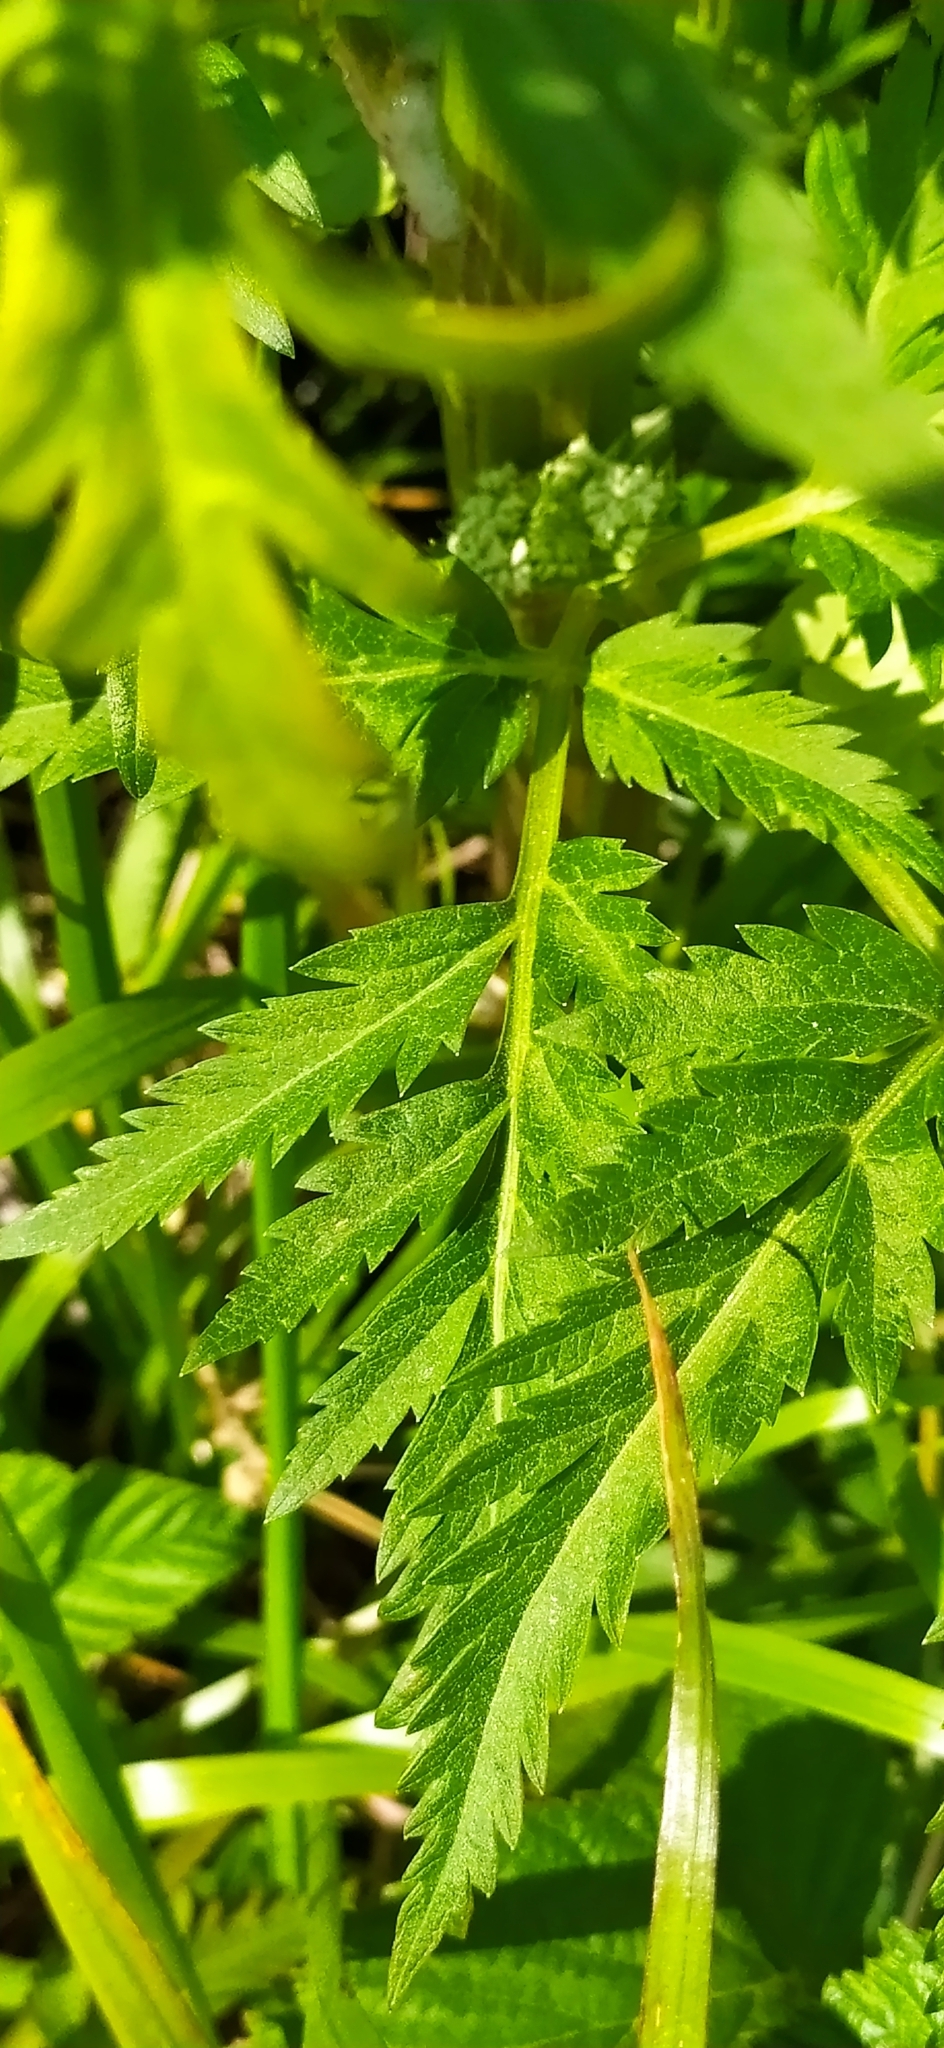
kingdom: Plantae
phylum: Tracheophyta
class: Magnoliopsida
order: Apiales
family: Apiaceae
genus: Pleurospermum
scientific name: Pleurospermum uralense
